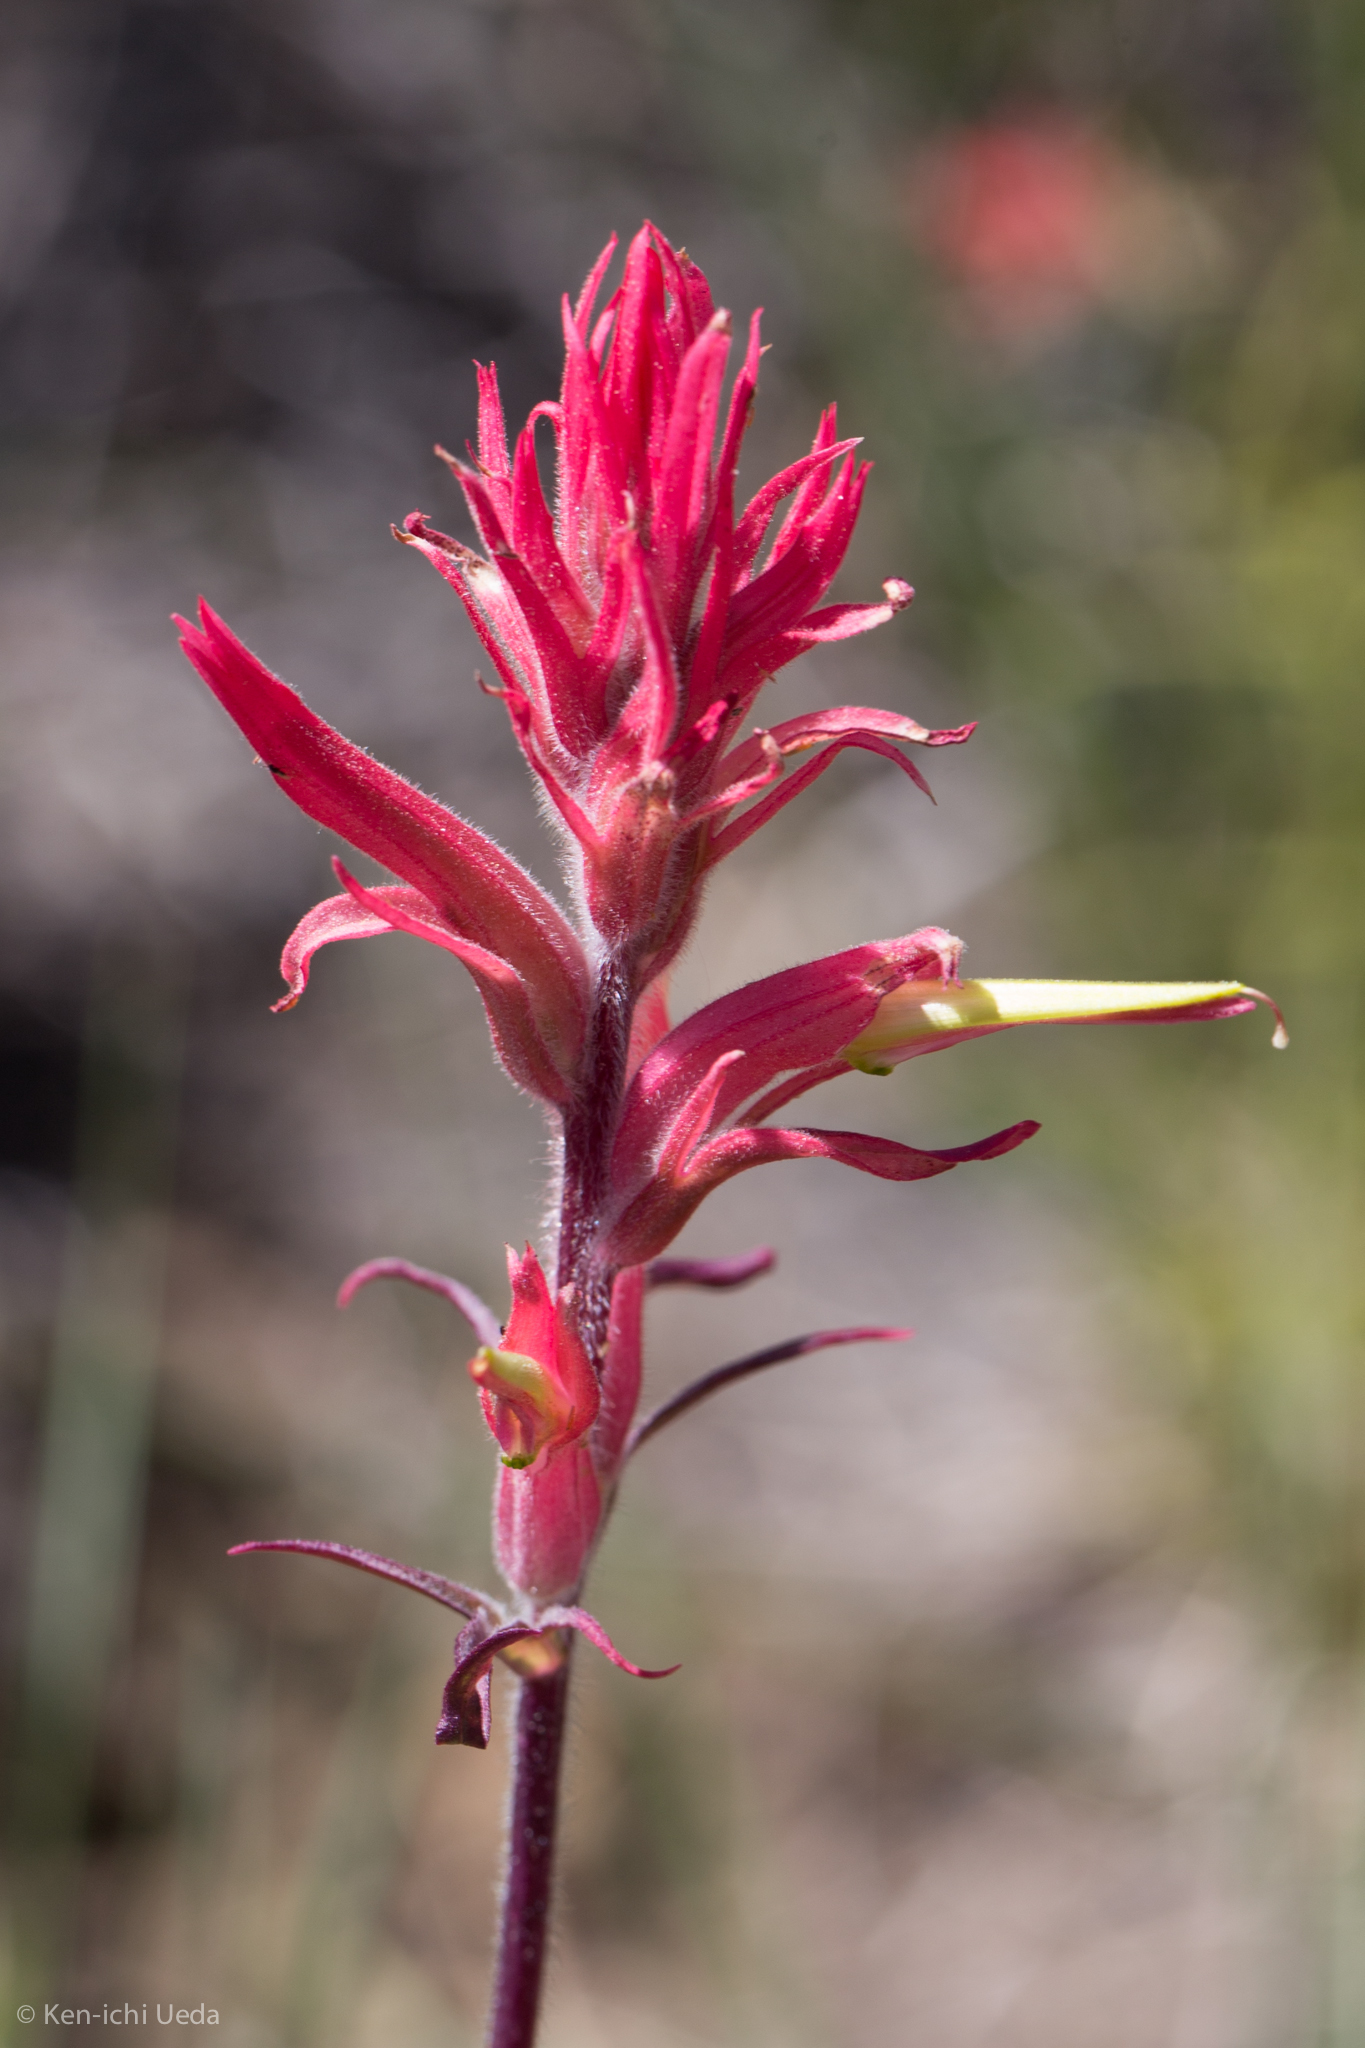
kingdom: Plantae
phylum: Tracheophyta
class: Magnoliopsida
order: Lamiales
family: Orobanchaceae
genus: Castilleja
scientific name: Castilleja linariifolia
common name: Wyoming paintbrush
